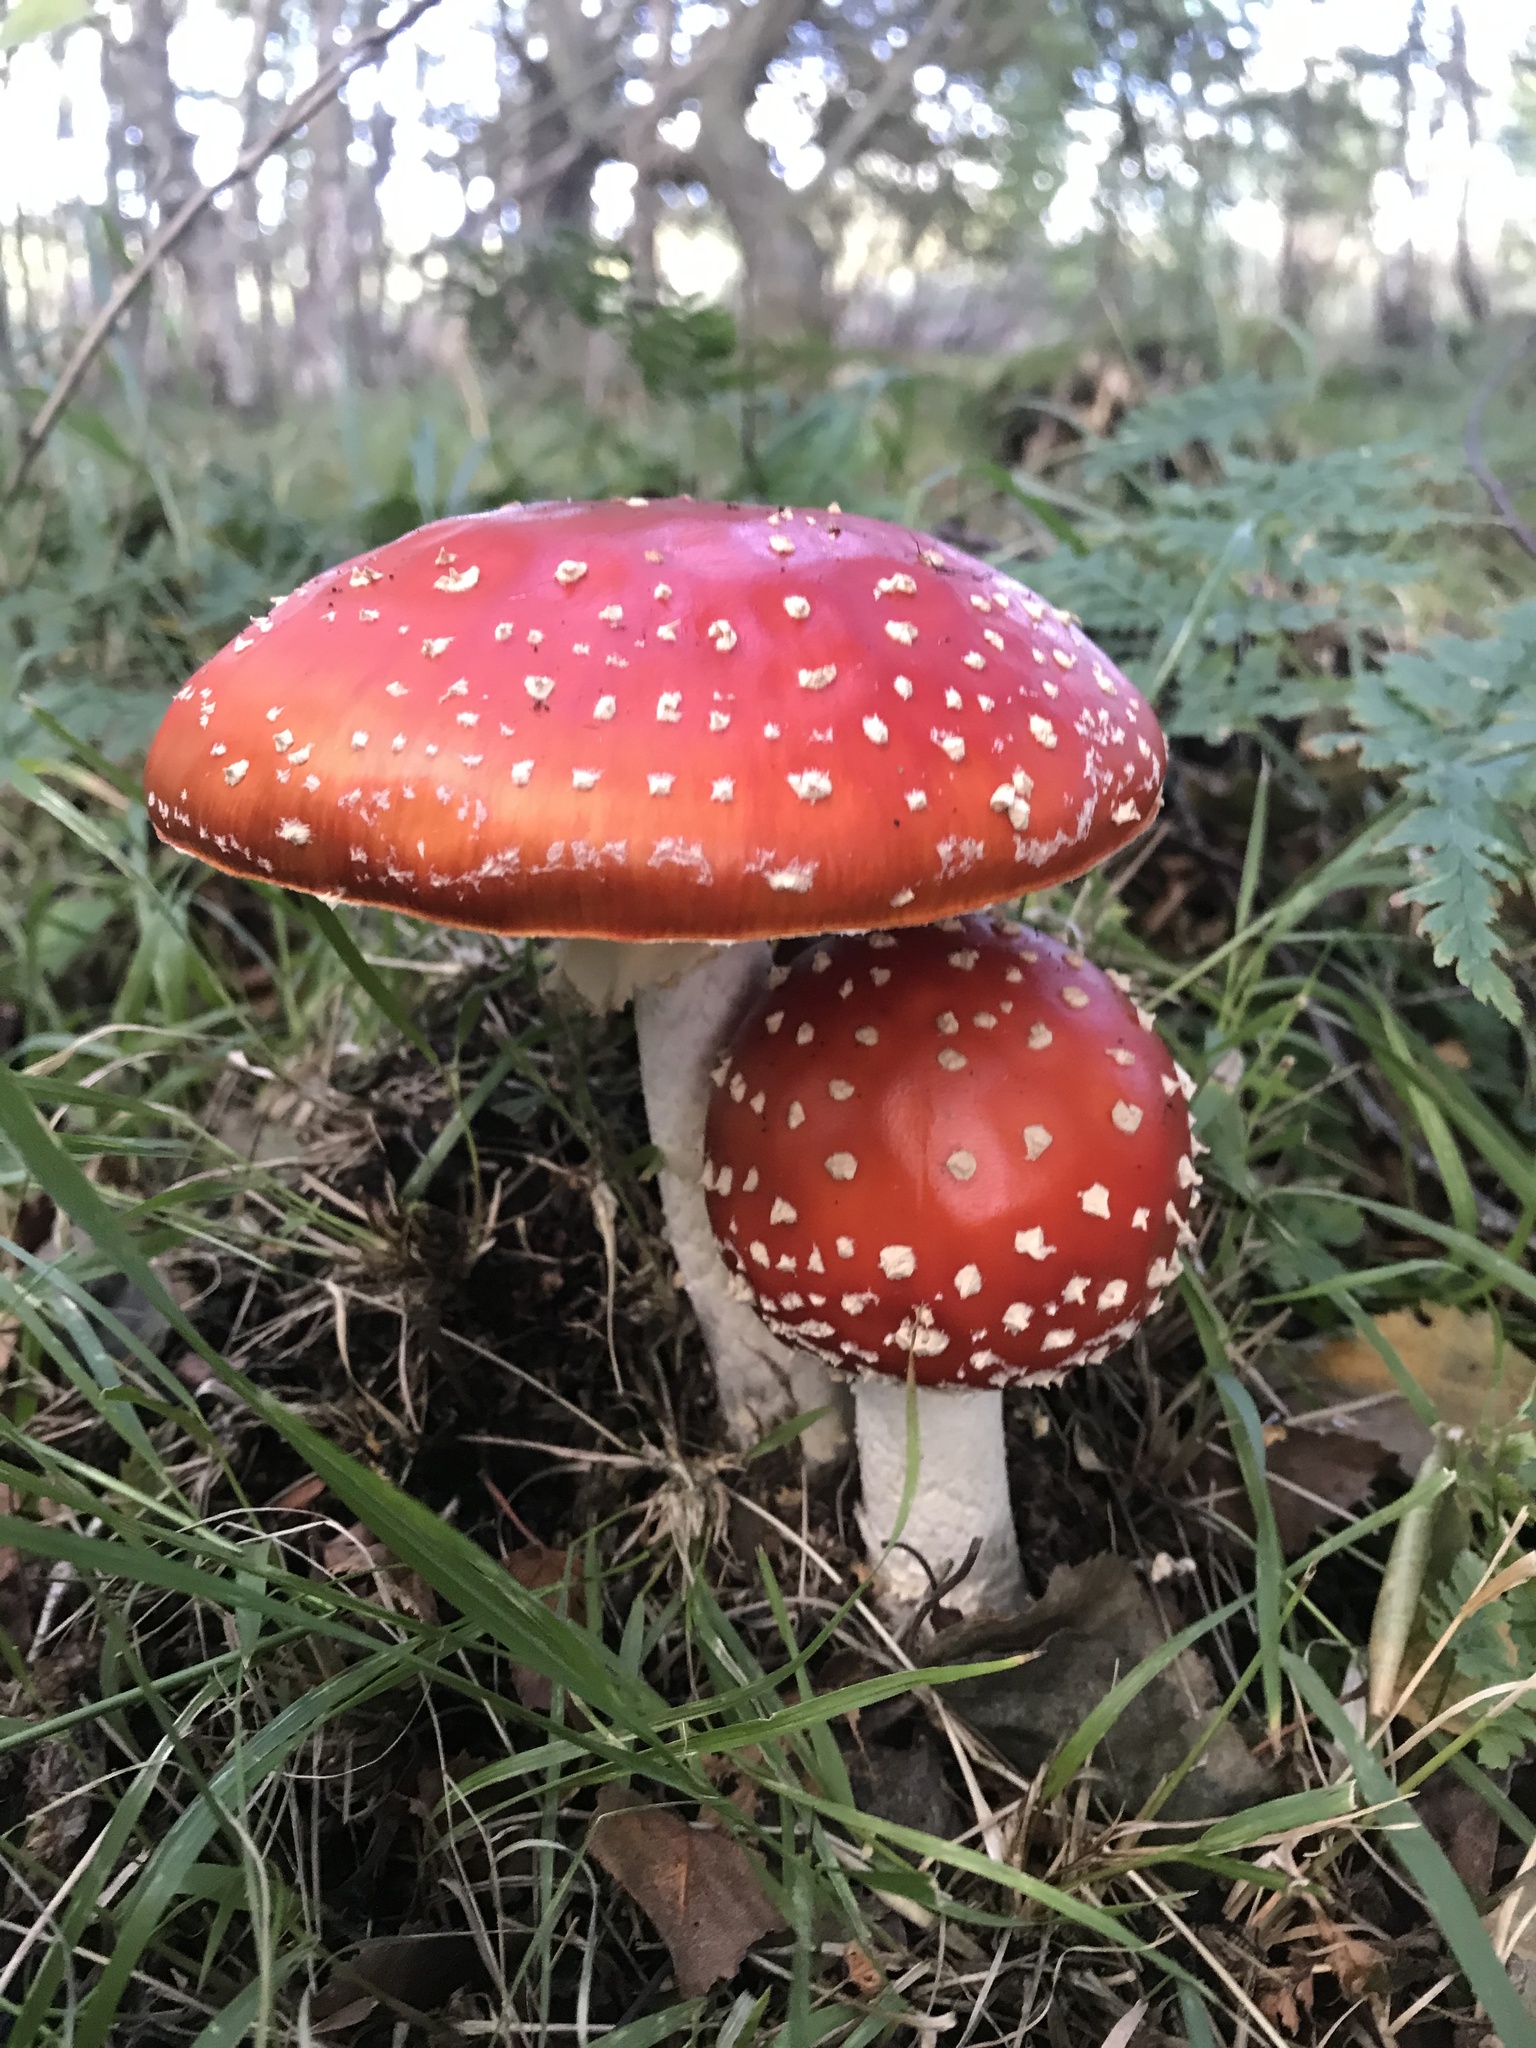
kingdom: Fungi
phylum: Basidiomycota
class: Agaricomycetes
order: Agaricales
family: Amanitaceae
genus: Amanita
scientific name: Amanita muscaria
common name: Fly agaric
